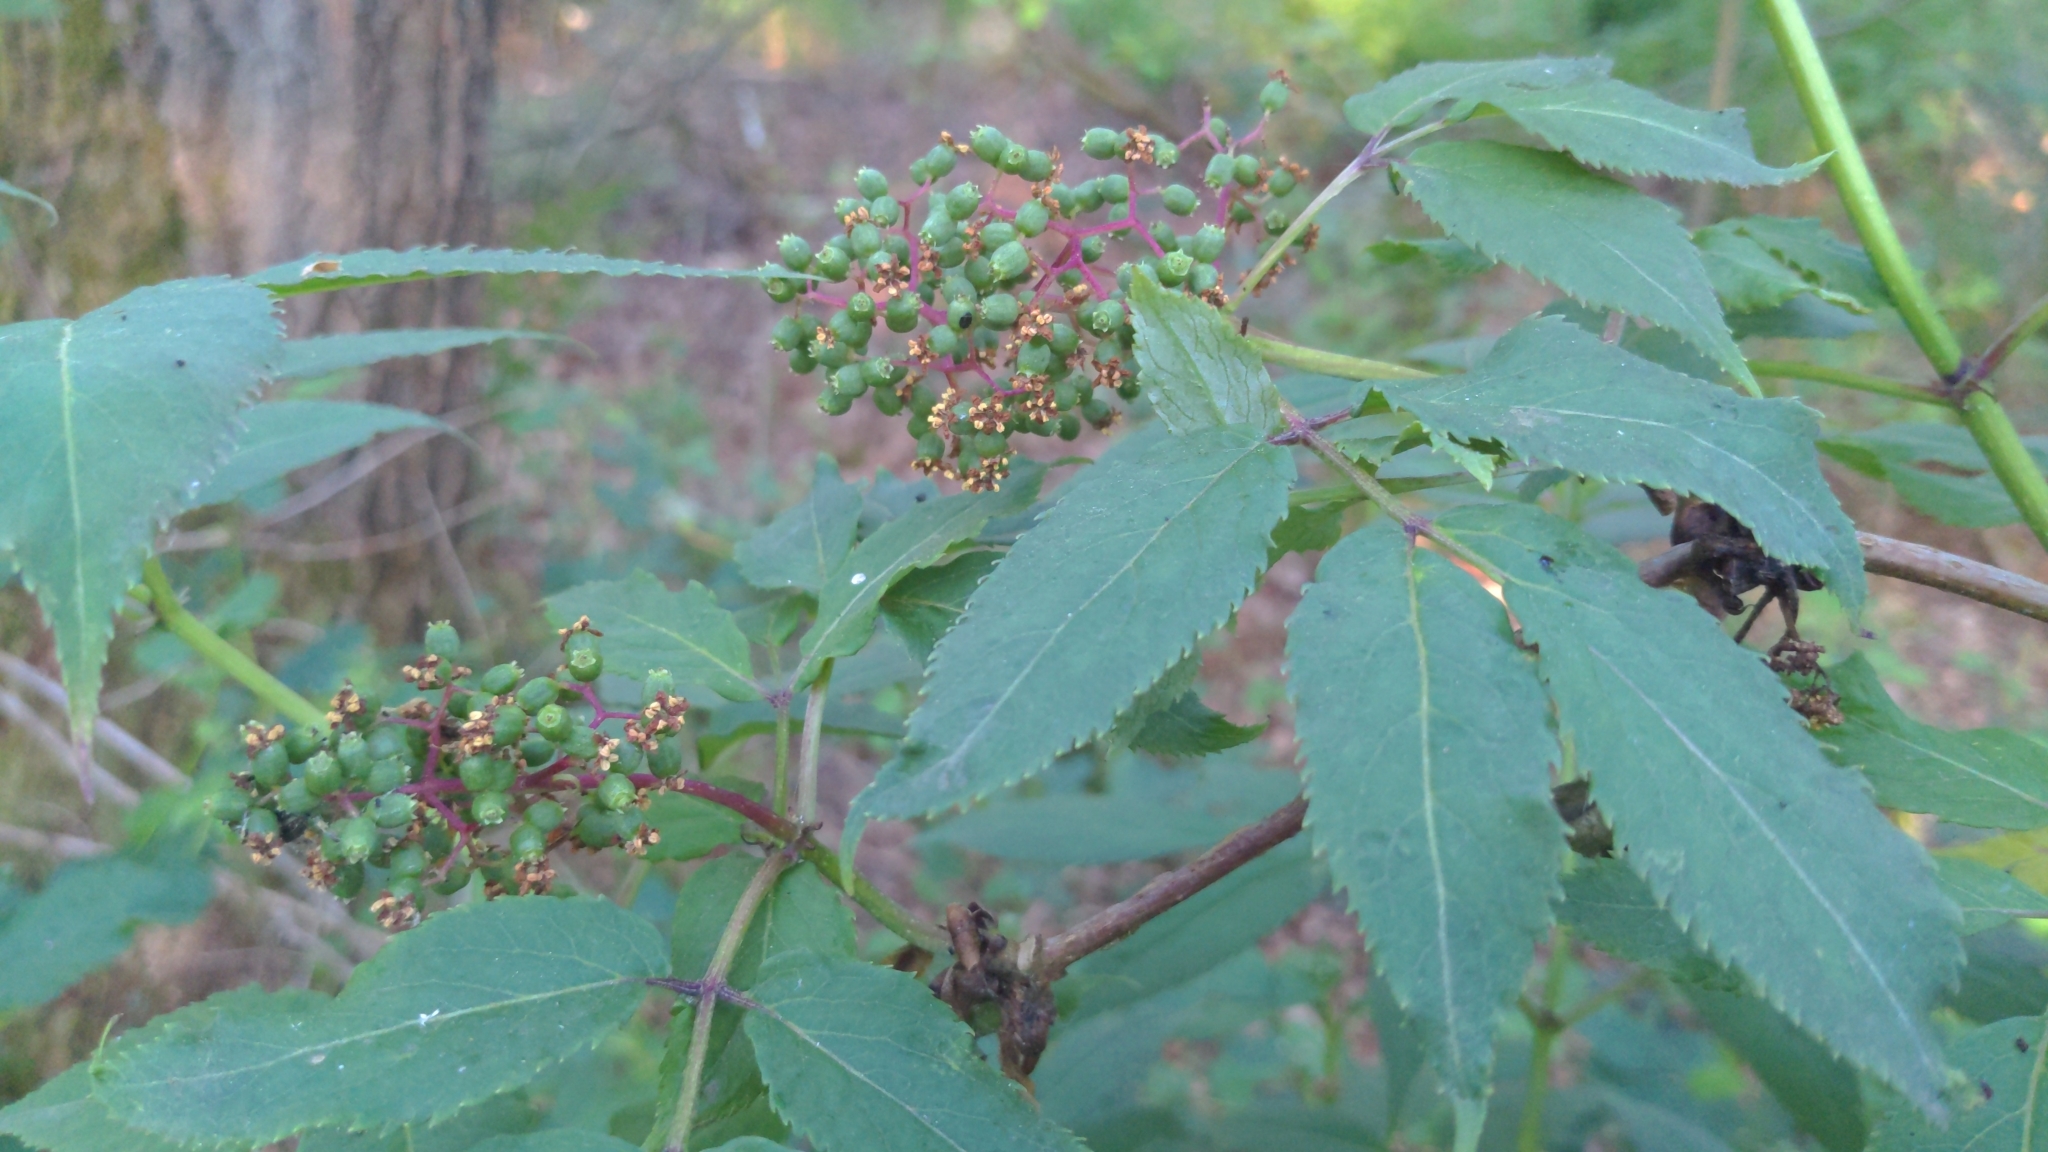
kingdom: Plantae
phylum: Tracheophyta
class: Magnoliopsida
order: Dipsacales
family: Viburnaceae
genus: Sambucus
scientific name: Sambucus racemosa
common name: Red-berried elder
